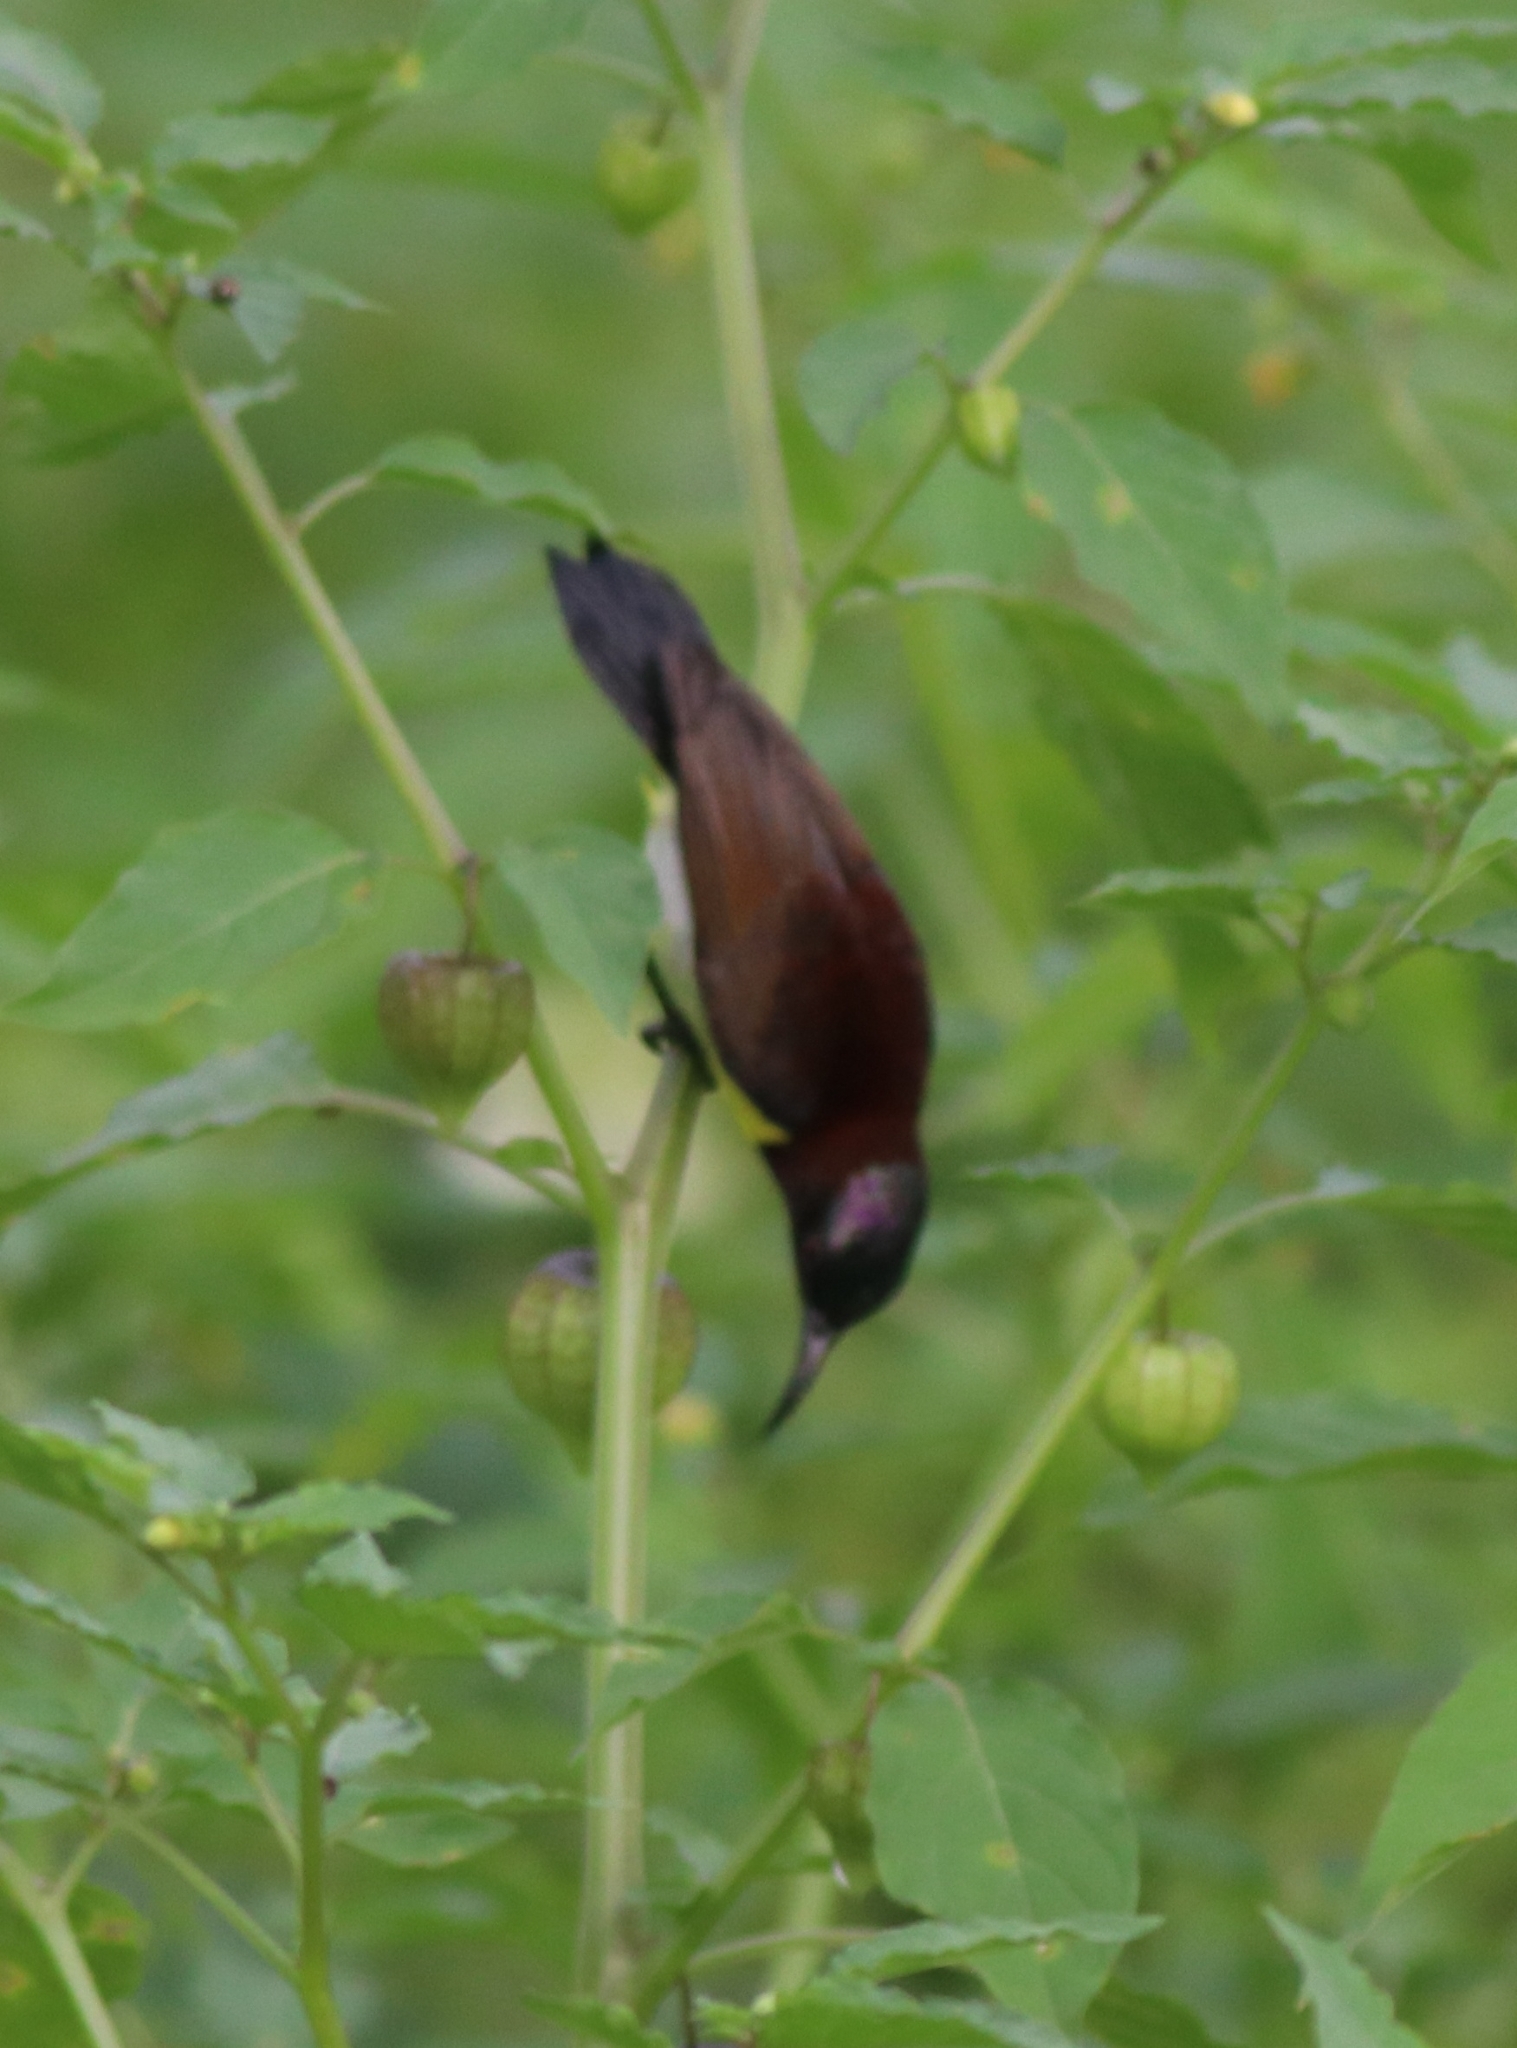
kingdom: Animalia
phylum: Chordata
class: Aves
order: Passeriformes
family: Nectariniidae
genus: Leptocoma
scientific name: Leptocoma zeylonica
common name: Purple-rumped sunbird
